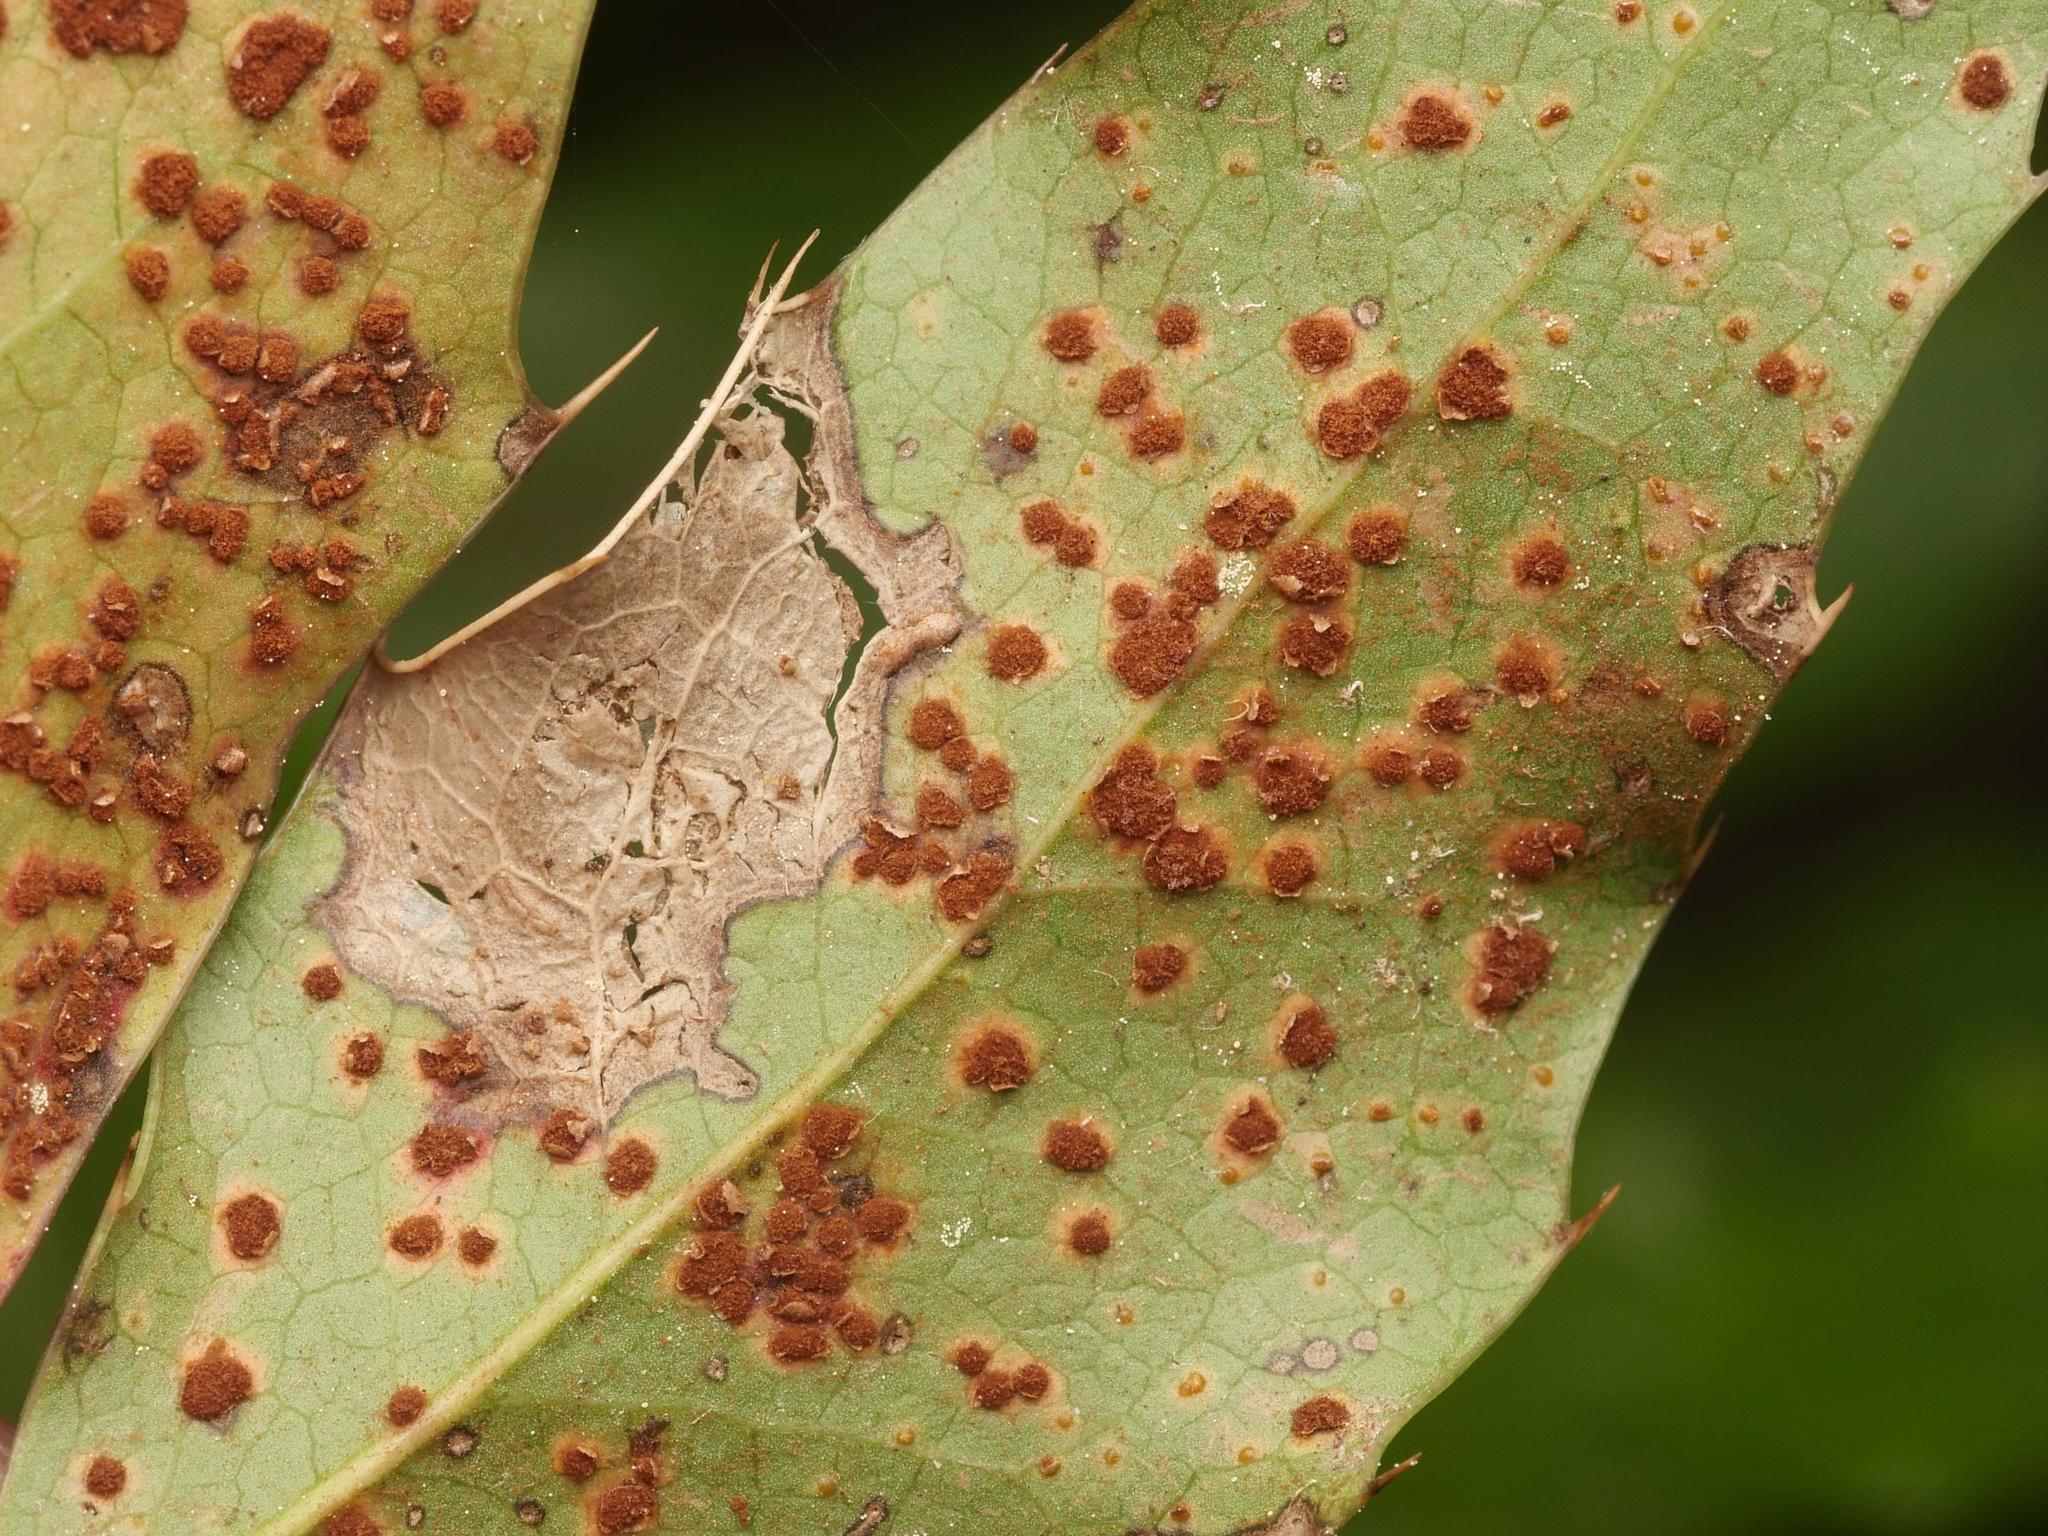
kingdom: Fungi
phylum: Basidiomycota
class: Pucciniomycetes
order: Pucciniales
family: Pucciniaceae
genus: Cumminsiella
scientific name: Cumminsiella mirabilissima
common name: Mahonia rust
